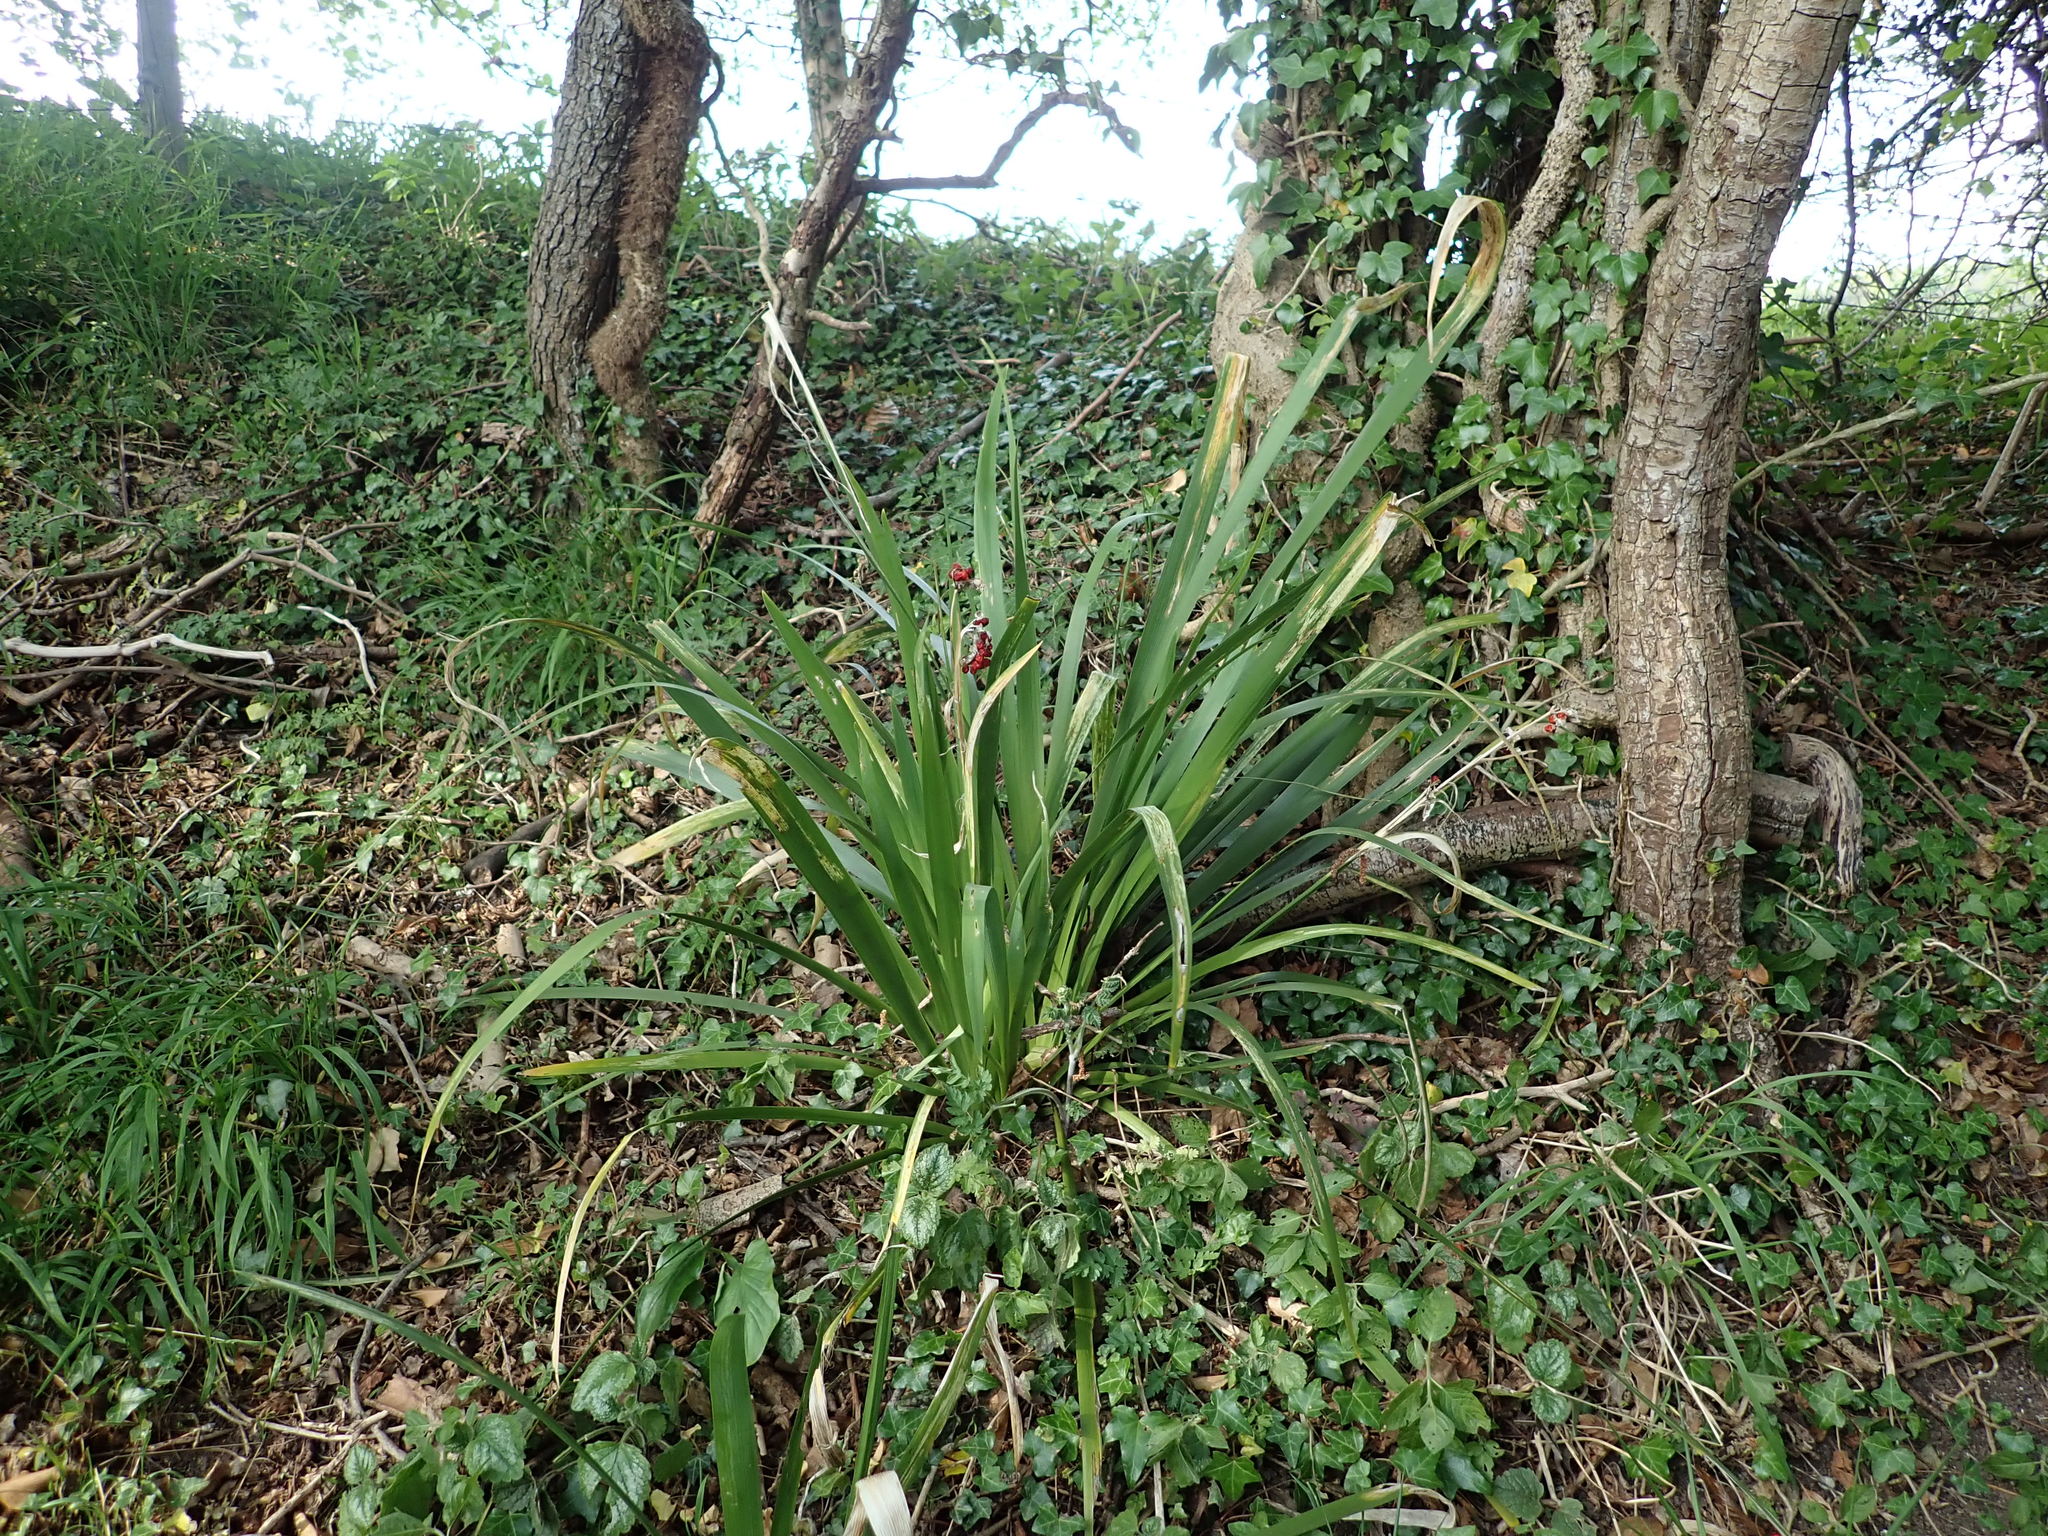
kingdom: Plantae
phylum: Tracheophyta
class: Liliopsida
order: Asparagales
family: Iridaceae
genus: Iris
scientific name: Iris foetidissima
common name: Stinking iris
